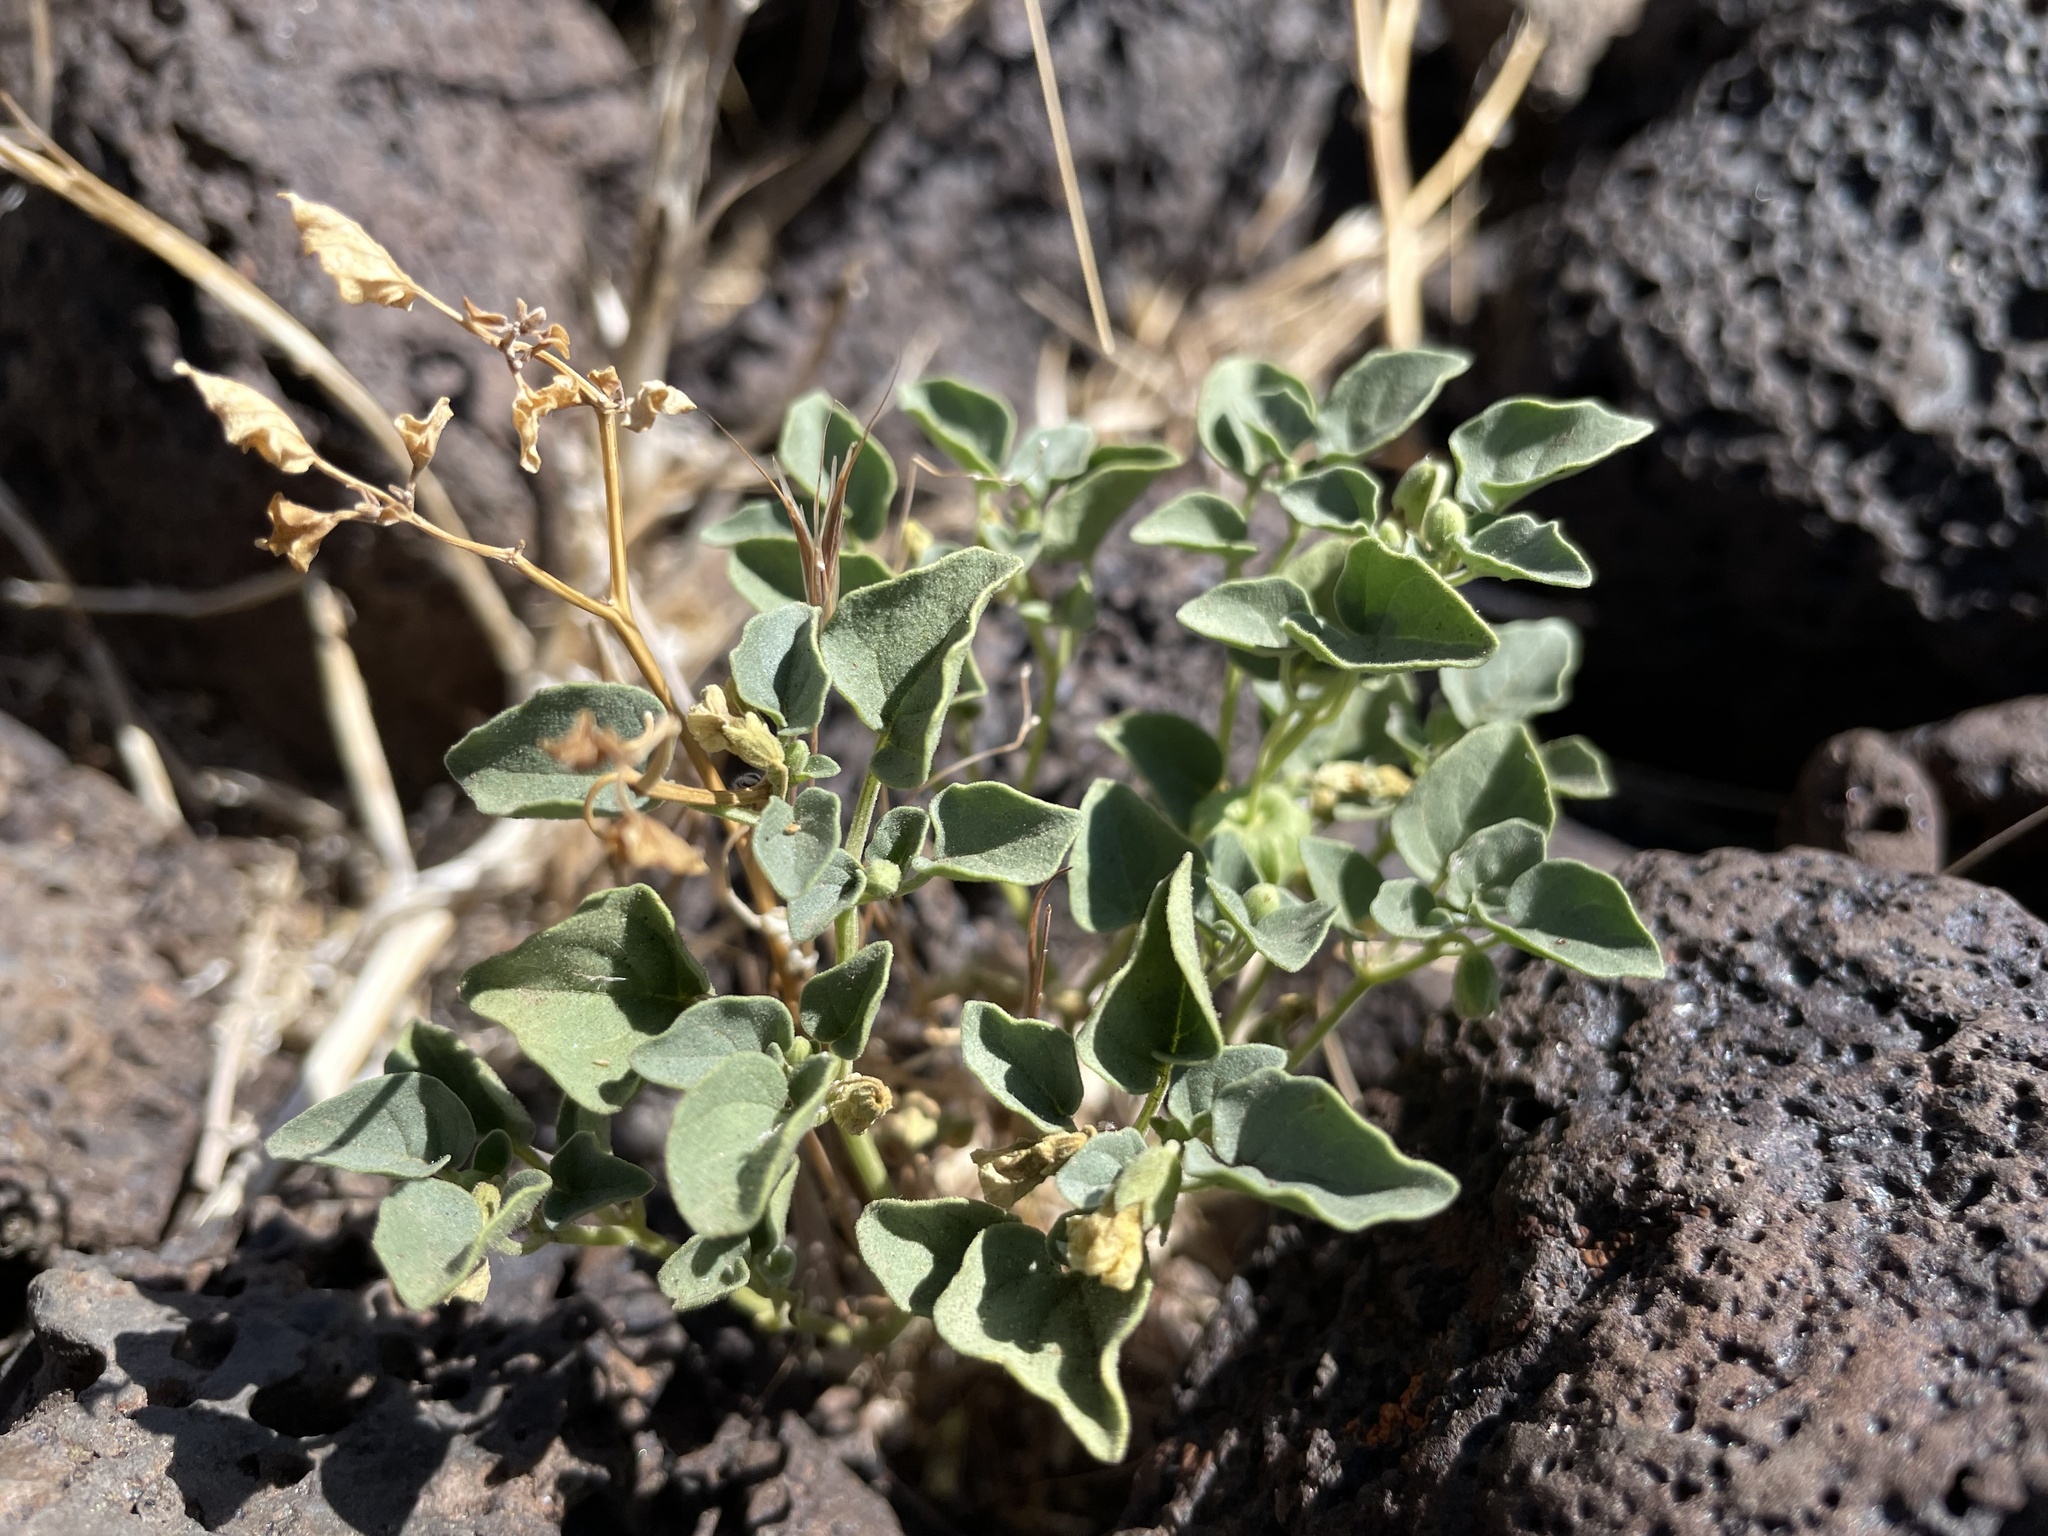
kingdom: Plantae
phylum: Tracheophyta
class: Magnoliopsida
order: Solanales
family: Solanaceae
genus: Physalis
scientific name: Physalis crassifolia
